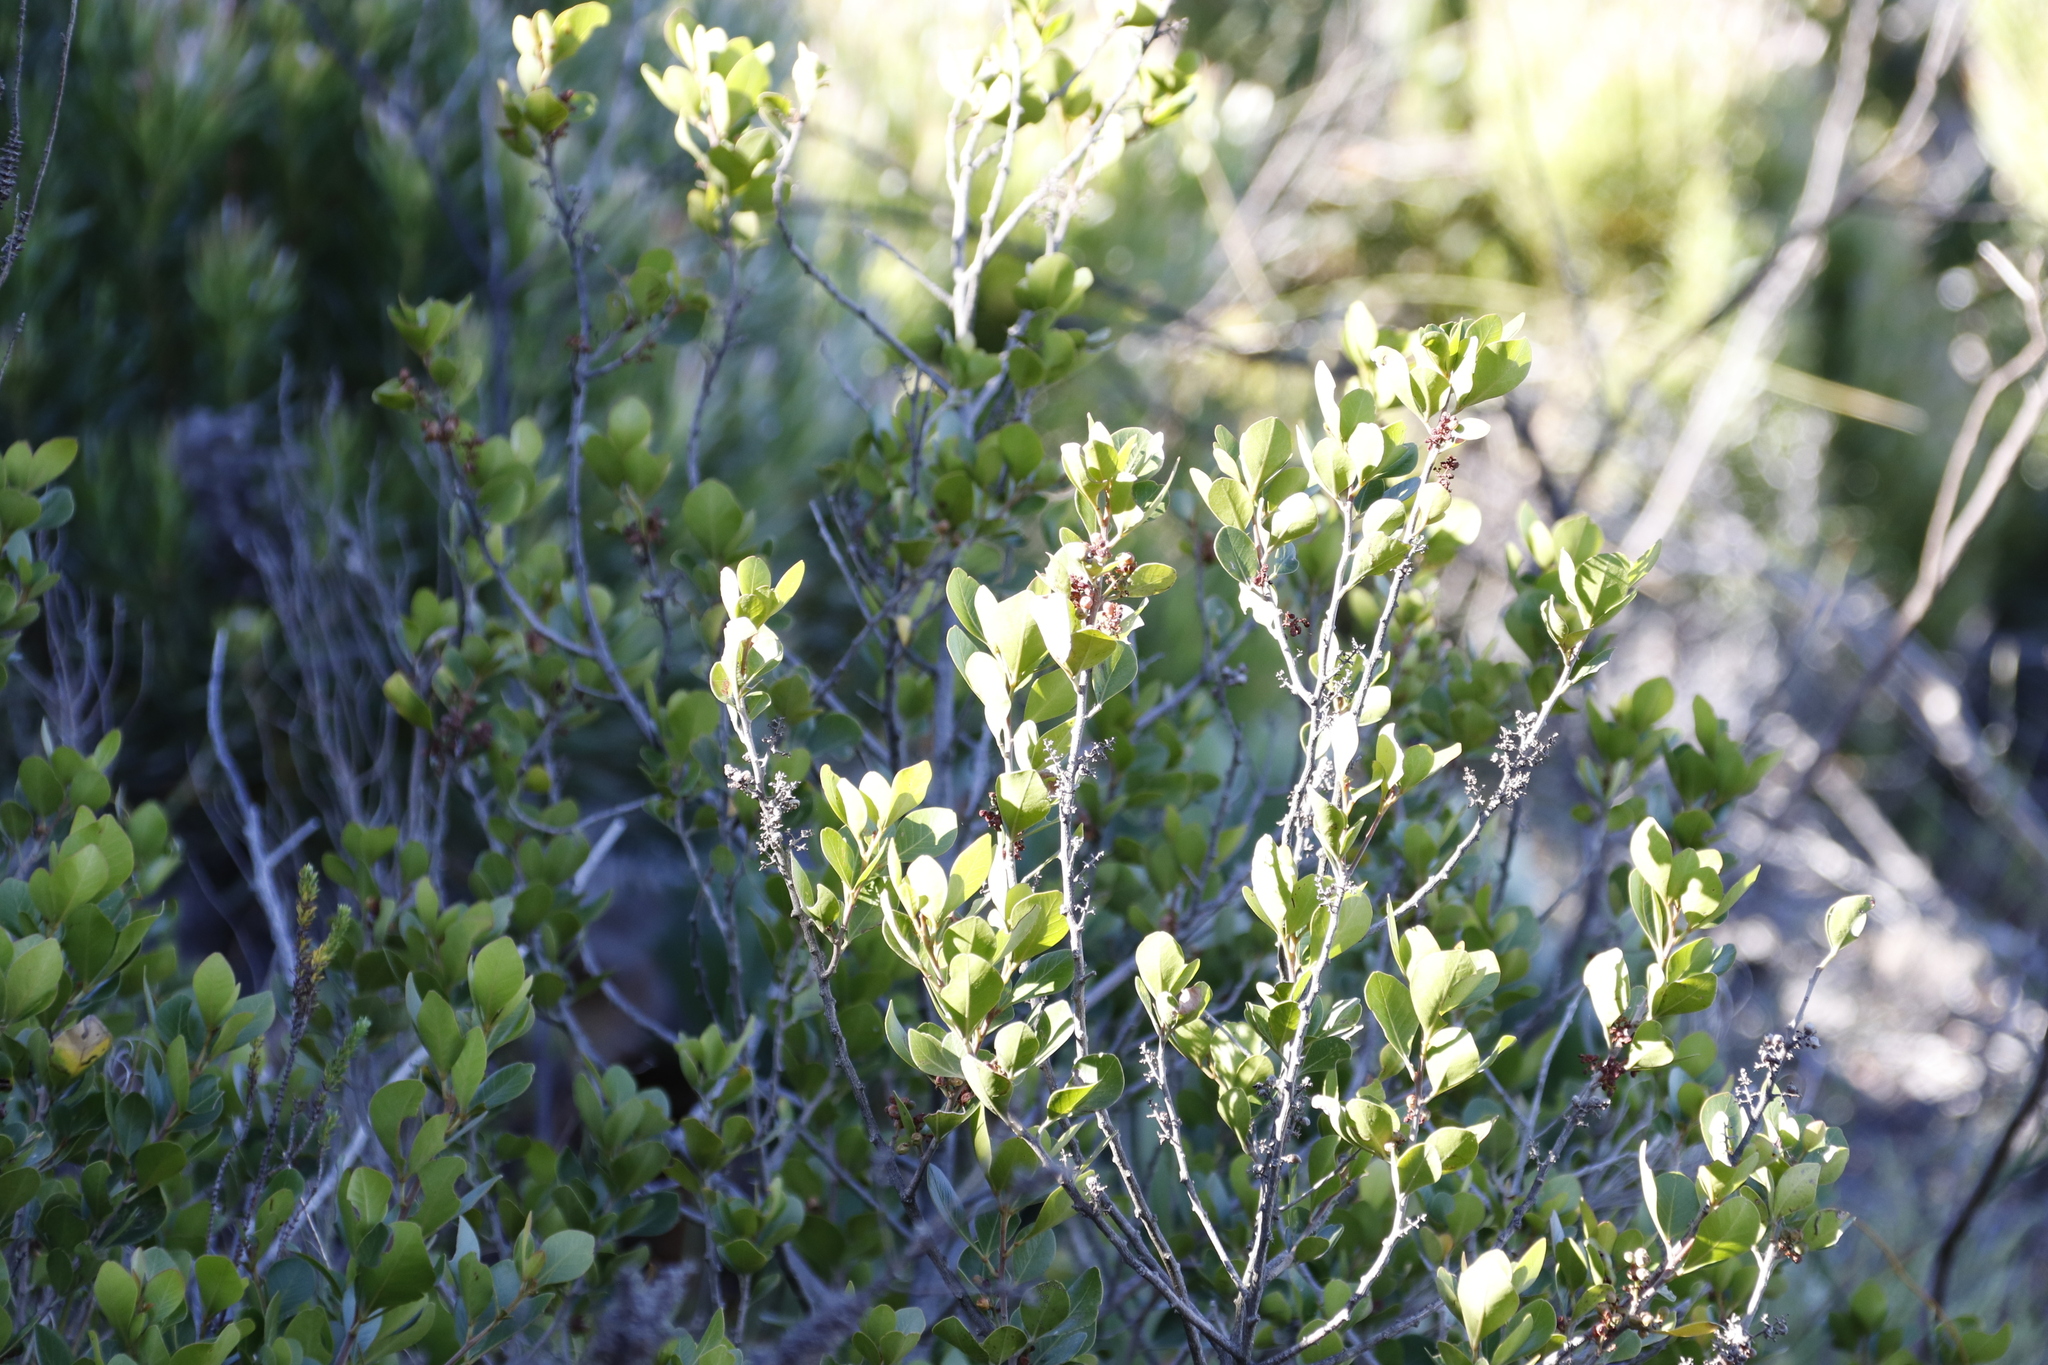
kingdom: Plantae
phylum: Tracheophyta
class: Magnoliopsida
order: Sapindales
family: Anacardiaceae
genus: Searsia
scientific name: Searsia lucida
